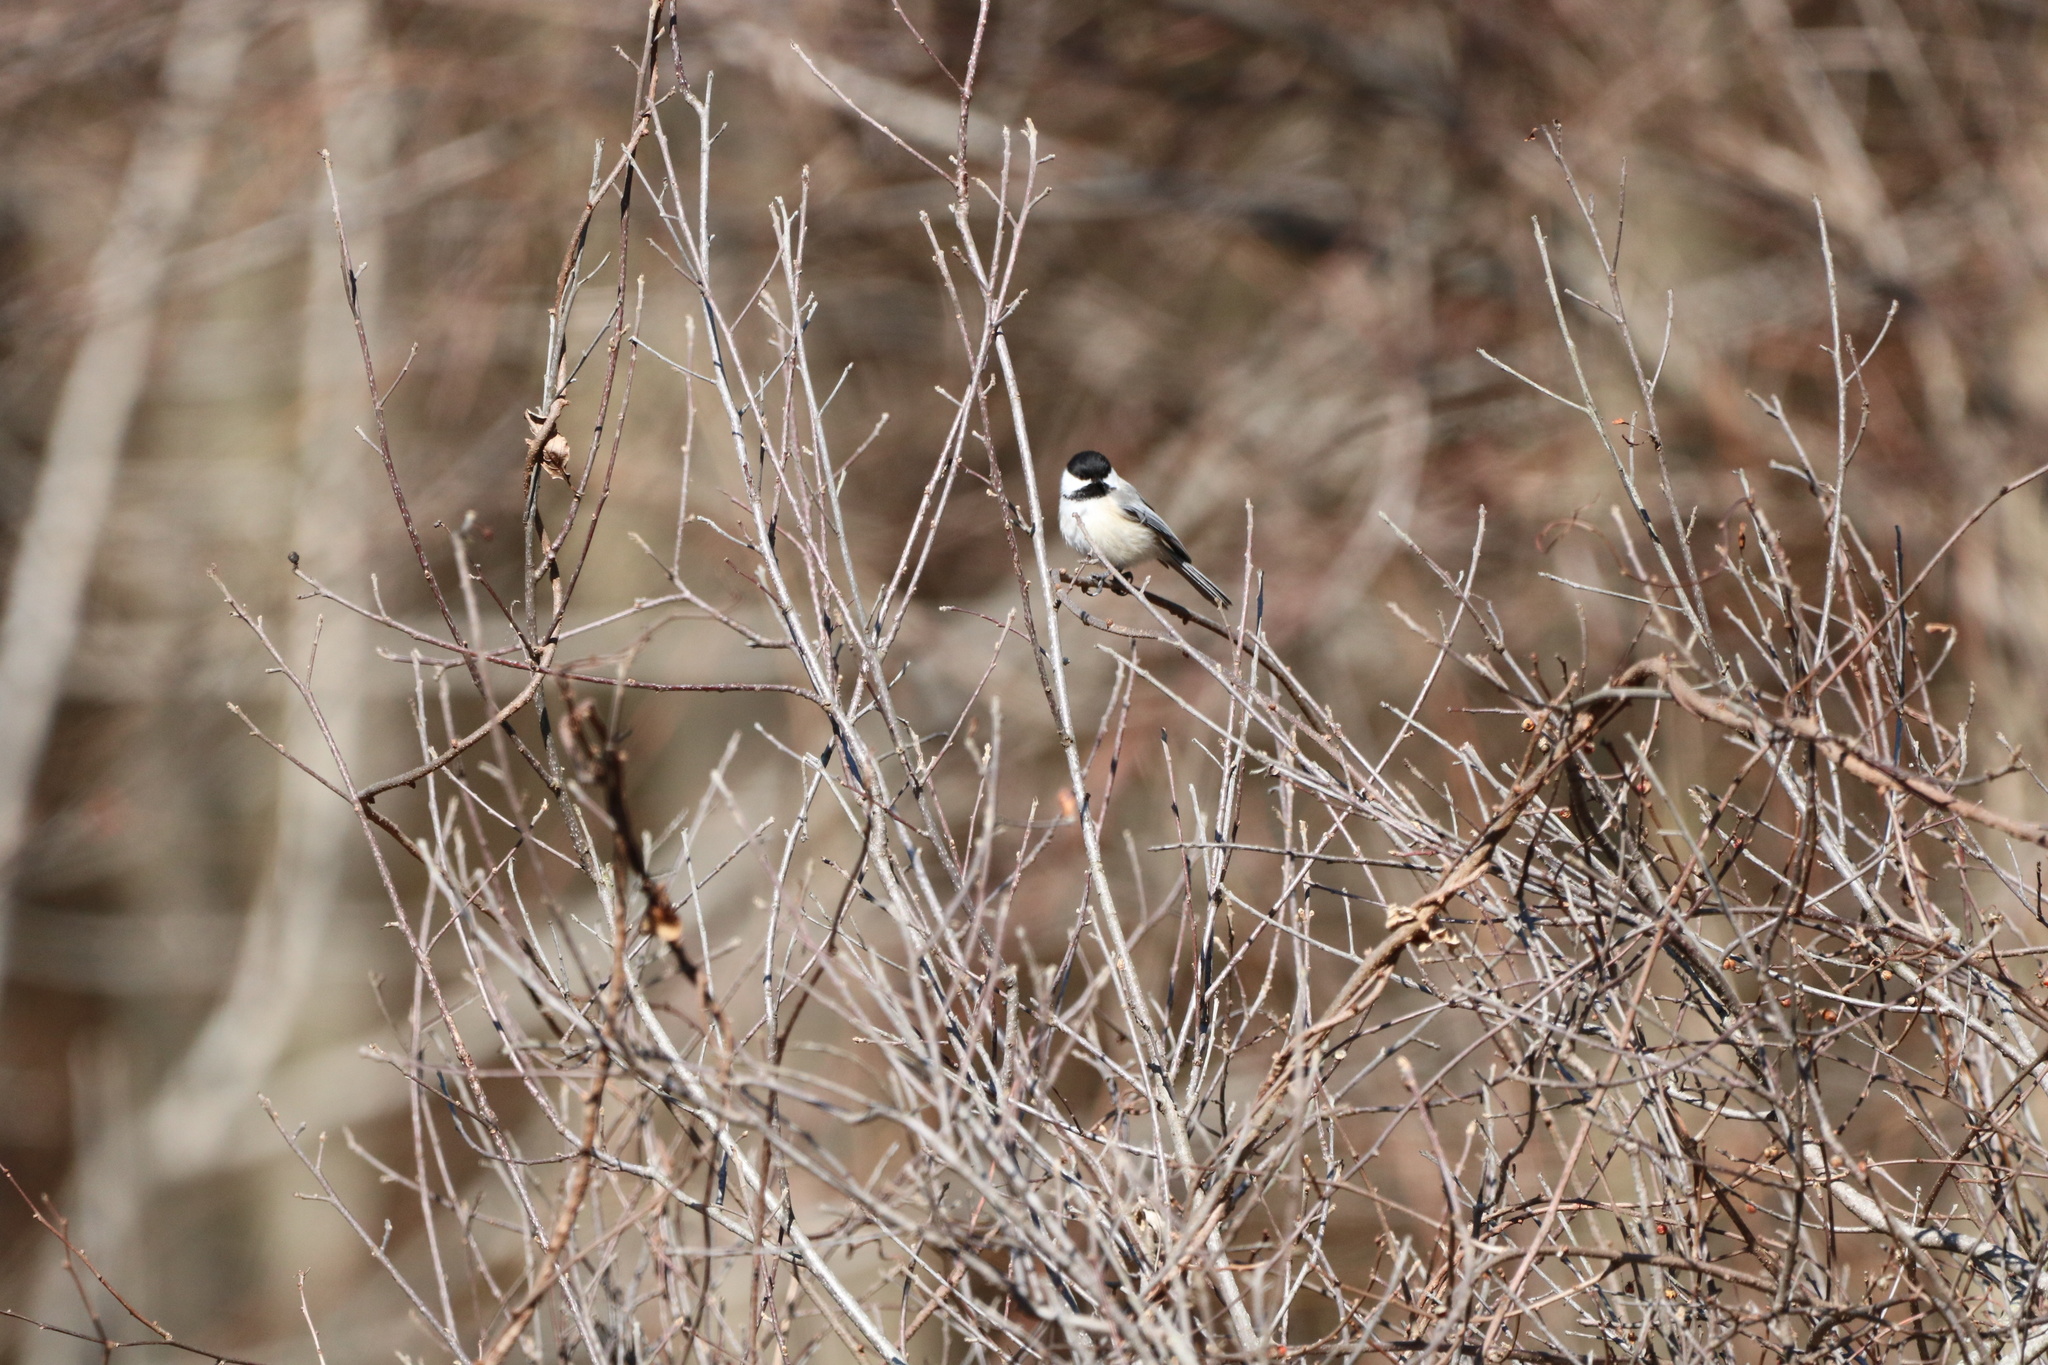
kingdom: Animalia
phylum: Chordata
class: Aves
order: Passeriformes
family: Paridae
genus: Poecile
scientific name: Poecile atricapillus
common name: Black-capped chickadee
